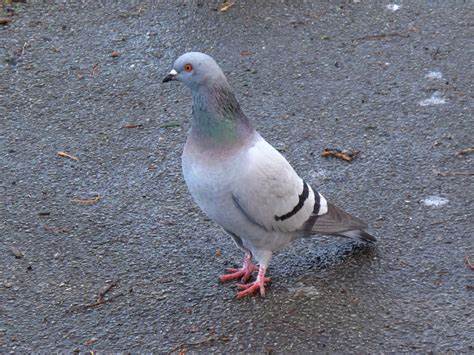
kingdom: Animalia
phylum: Chordata
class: Aves
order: Columbiformes
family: Columbidae
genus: Columba
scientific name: Columba livia
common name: Rock pigeon
